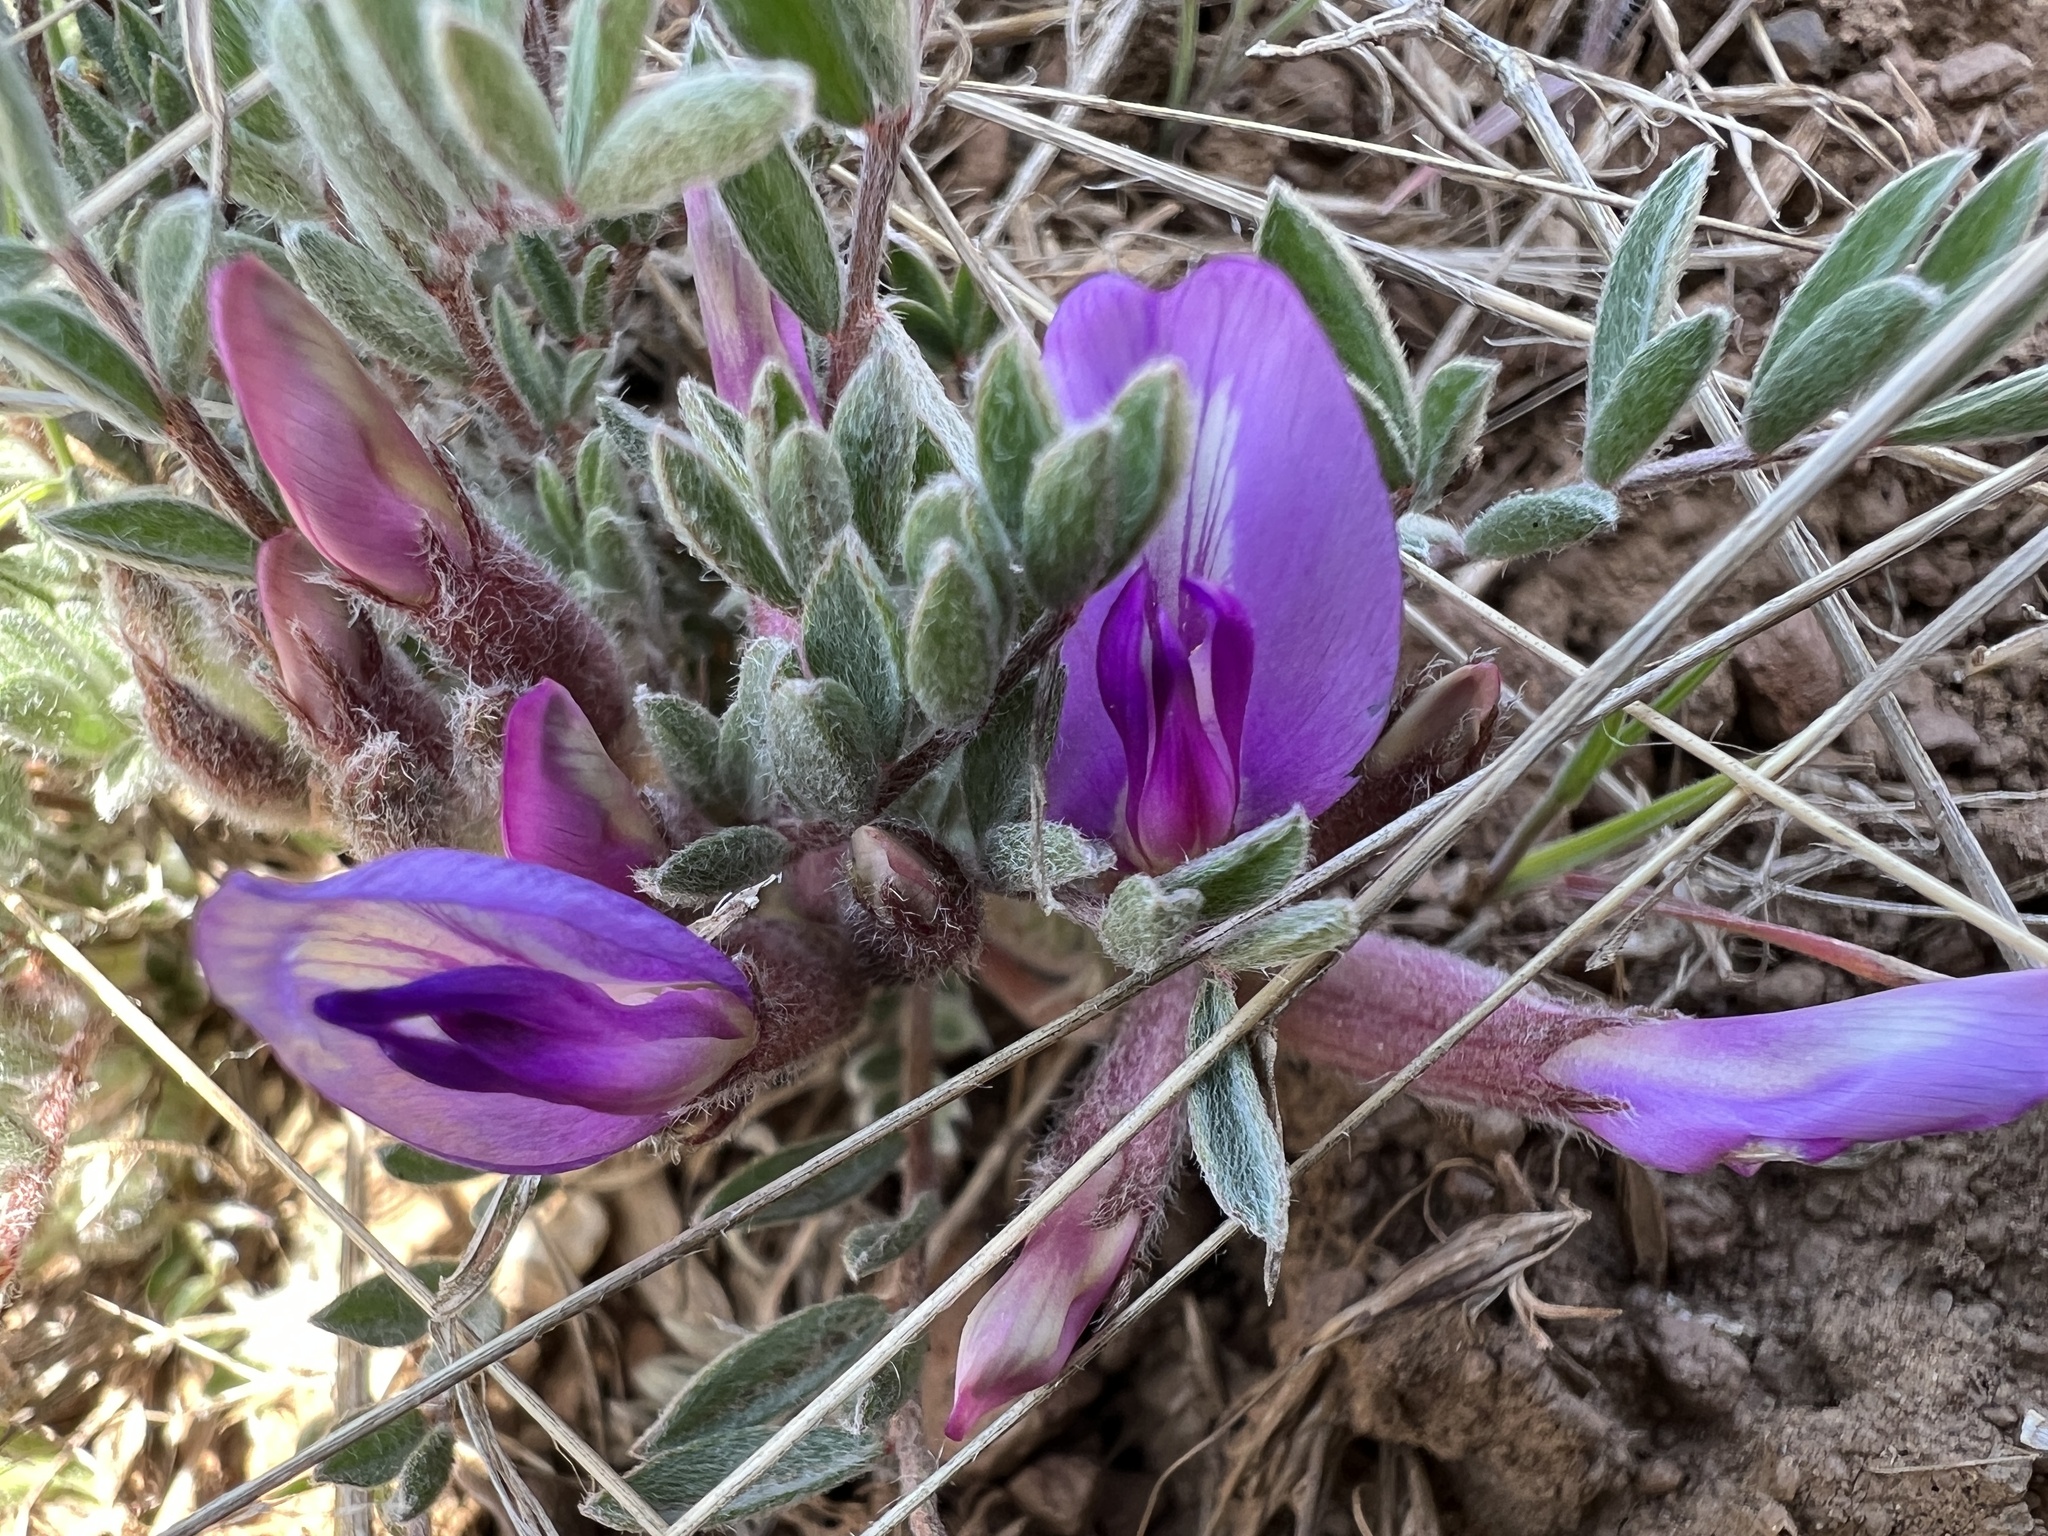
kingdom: Plantae
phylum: Tracheophyta
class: Magnoliopsida
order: Fabales
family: Fabaceae
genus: Astragalus
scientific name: Astragalus purshii
